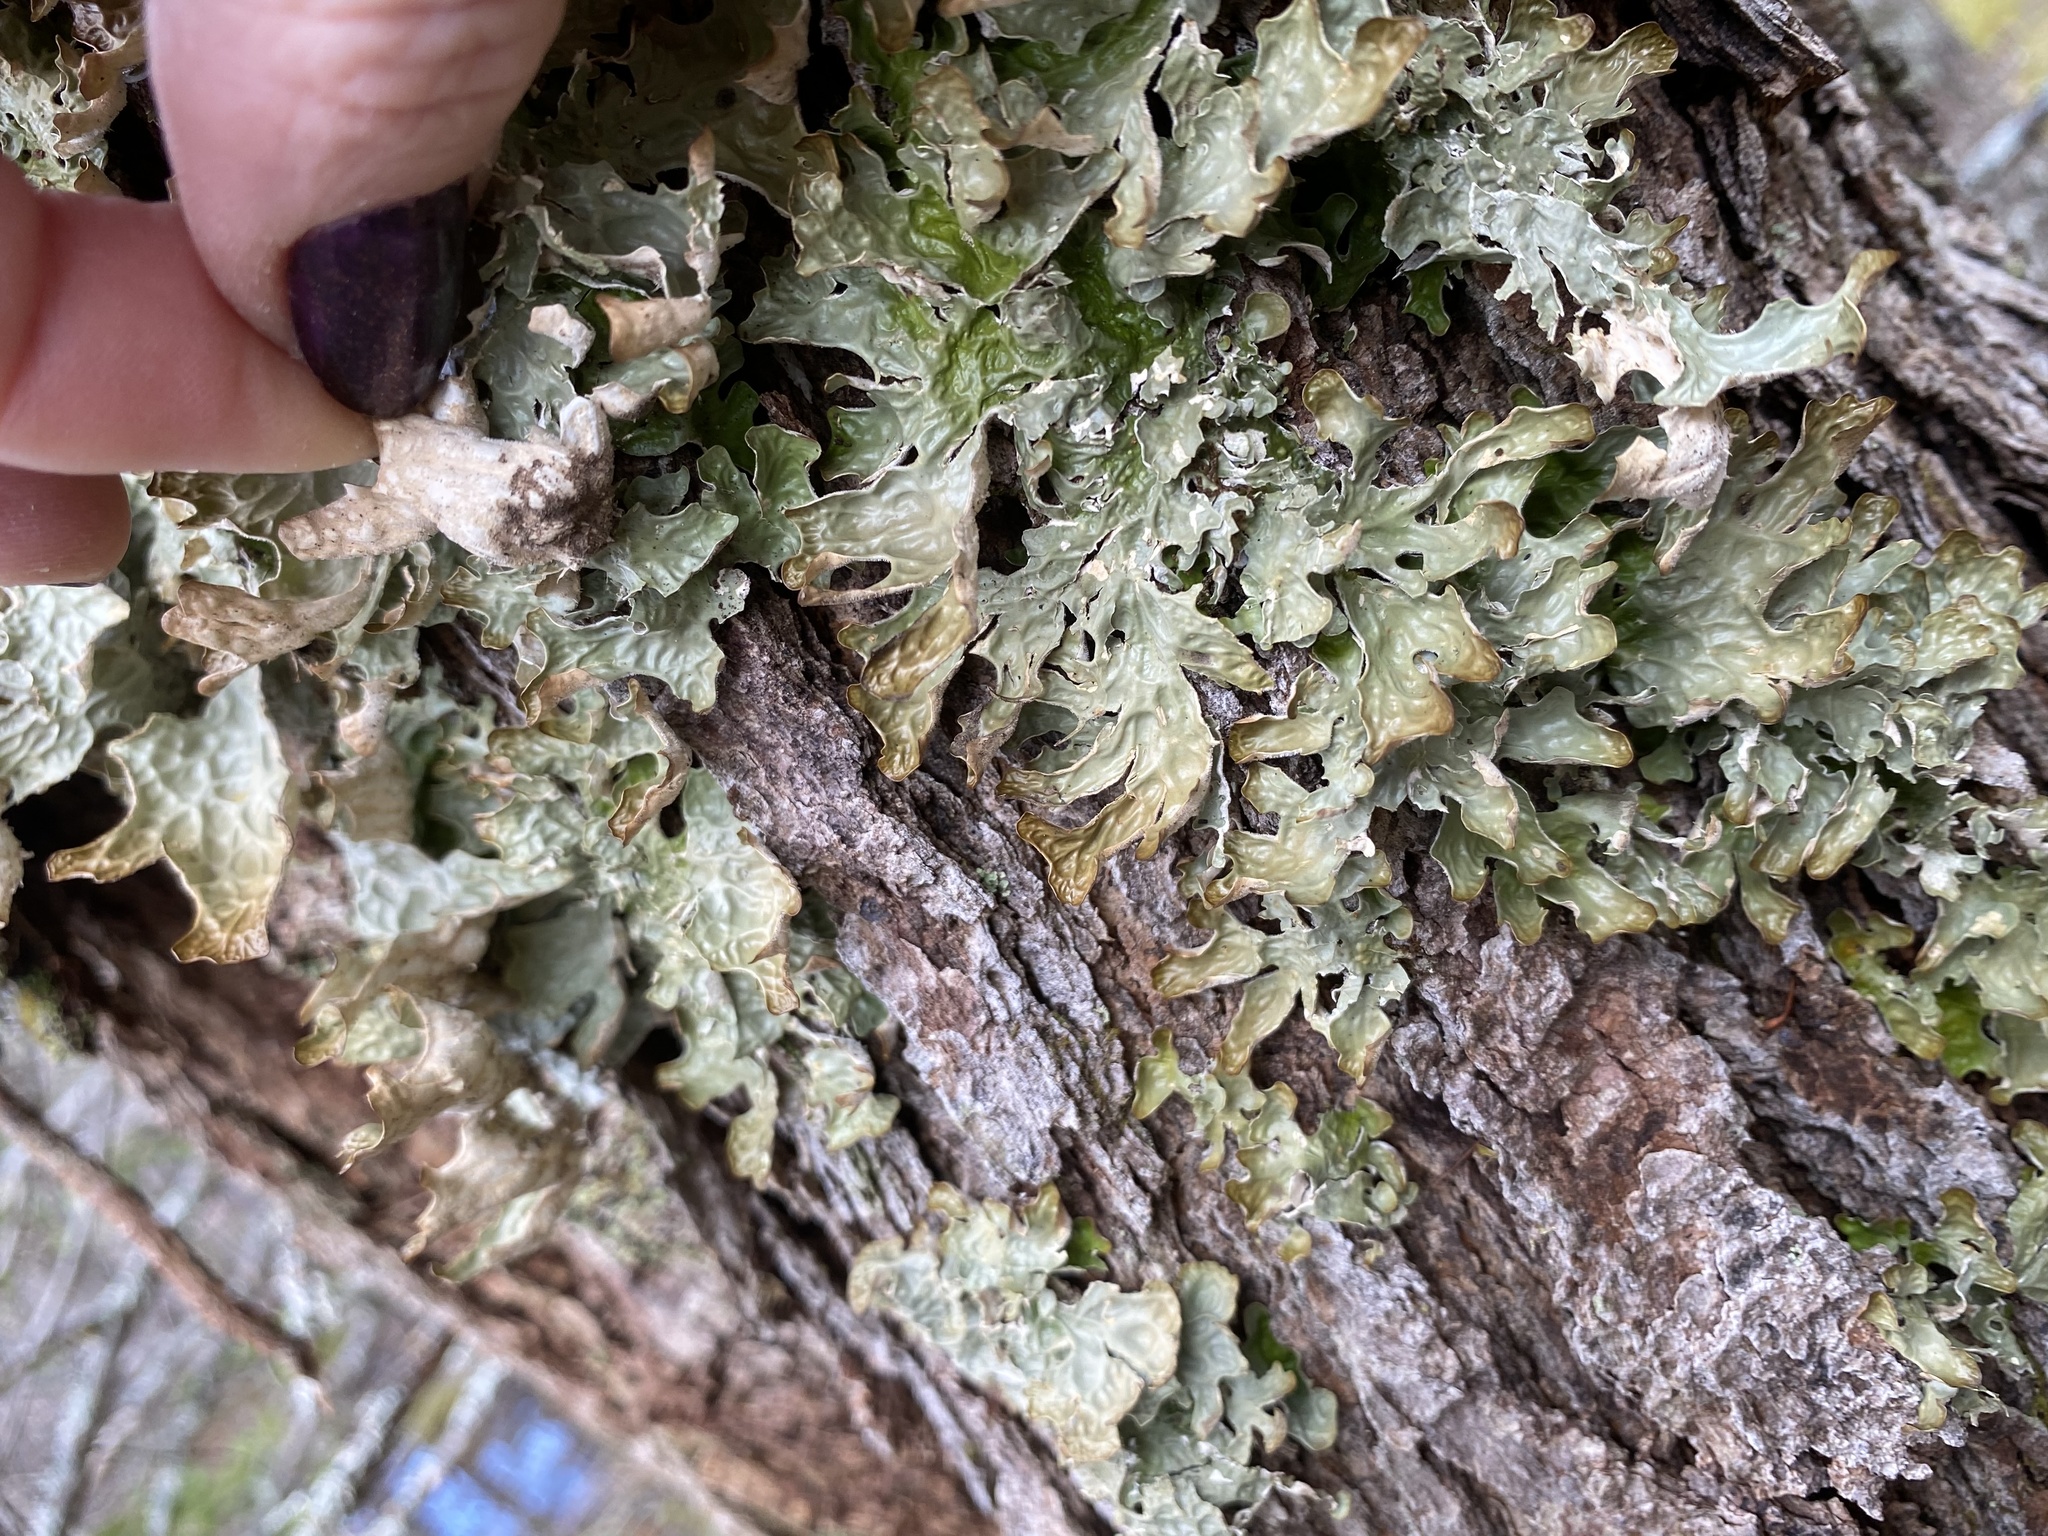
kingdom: Fungi
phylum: Ascomycota
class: Lecanoromycetes
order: Peltigerales
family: Lobariaceae
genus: Lobaria
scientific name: Lobaria pulmonaria
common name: Lungwort
